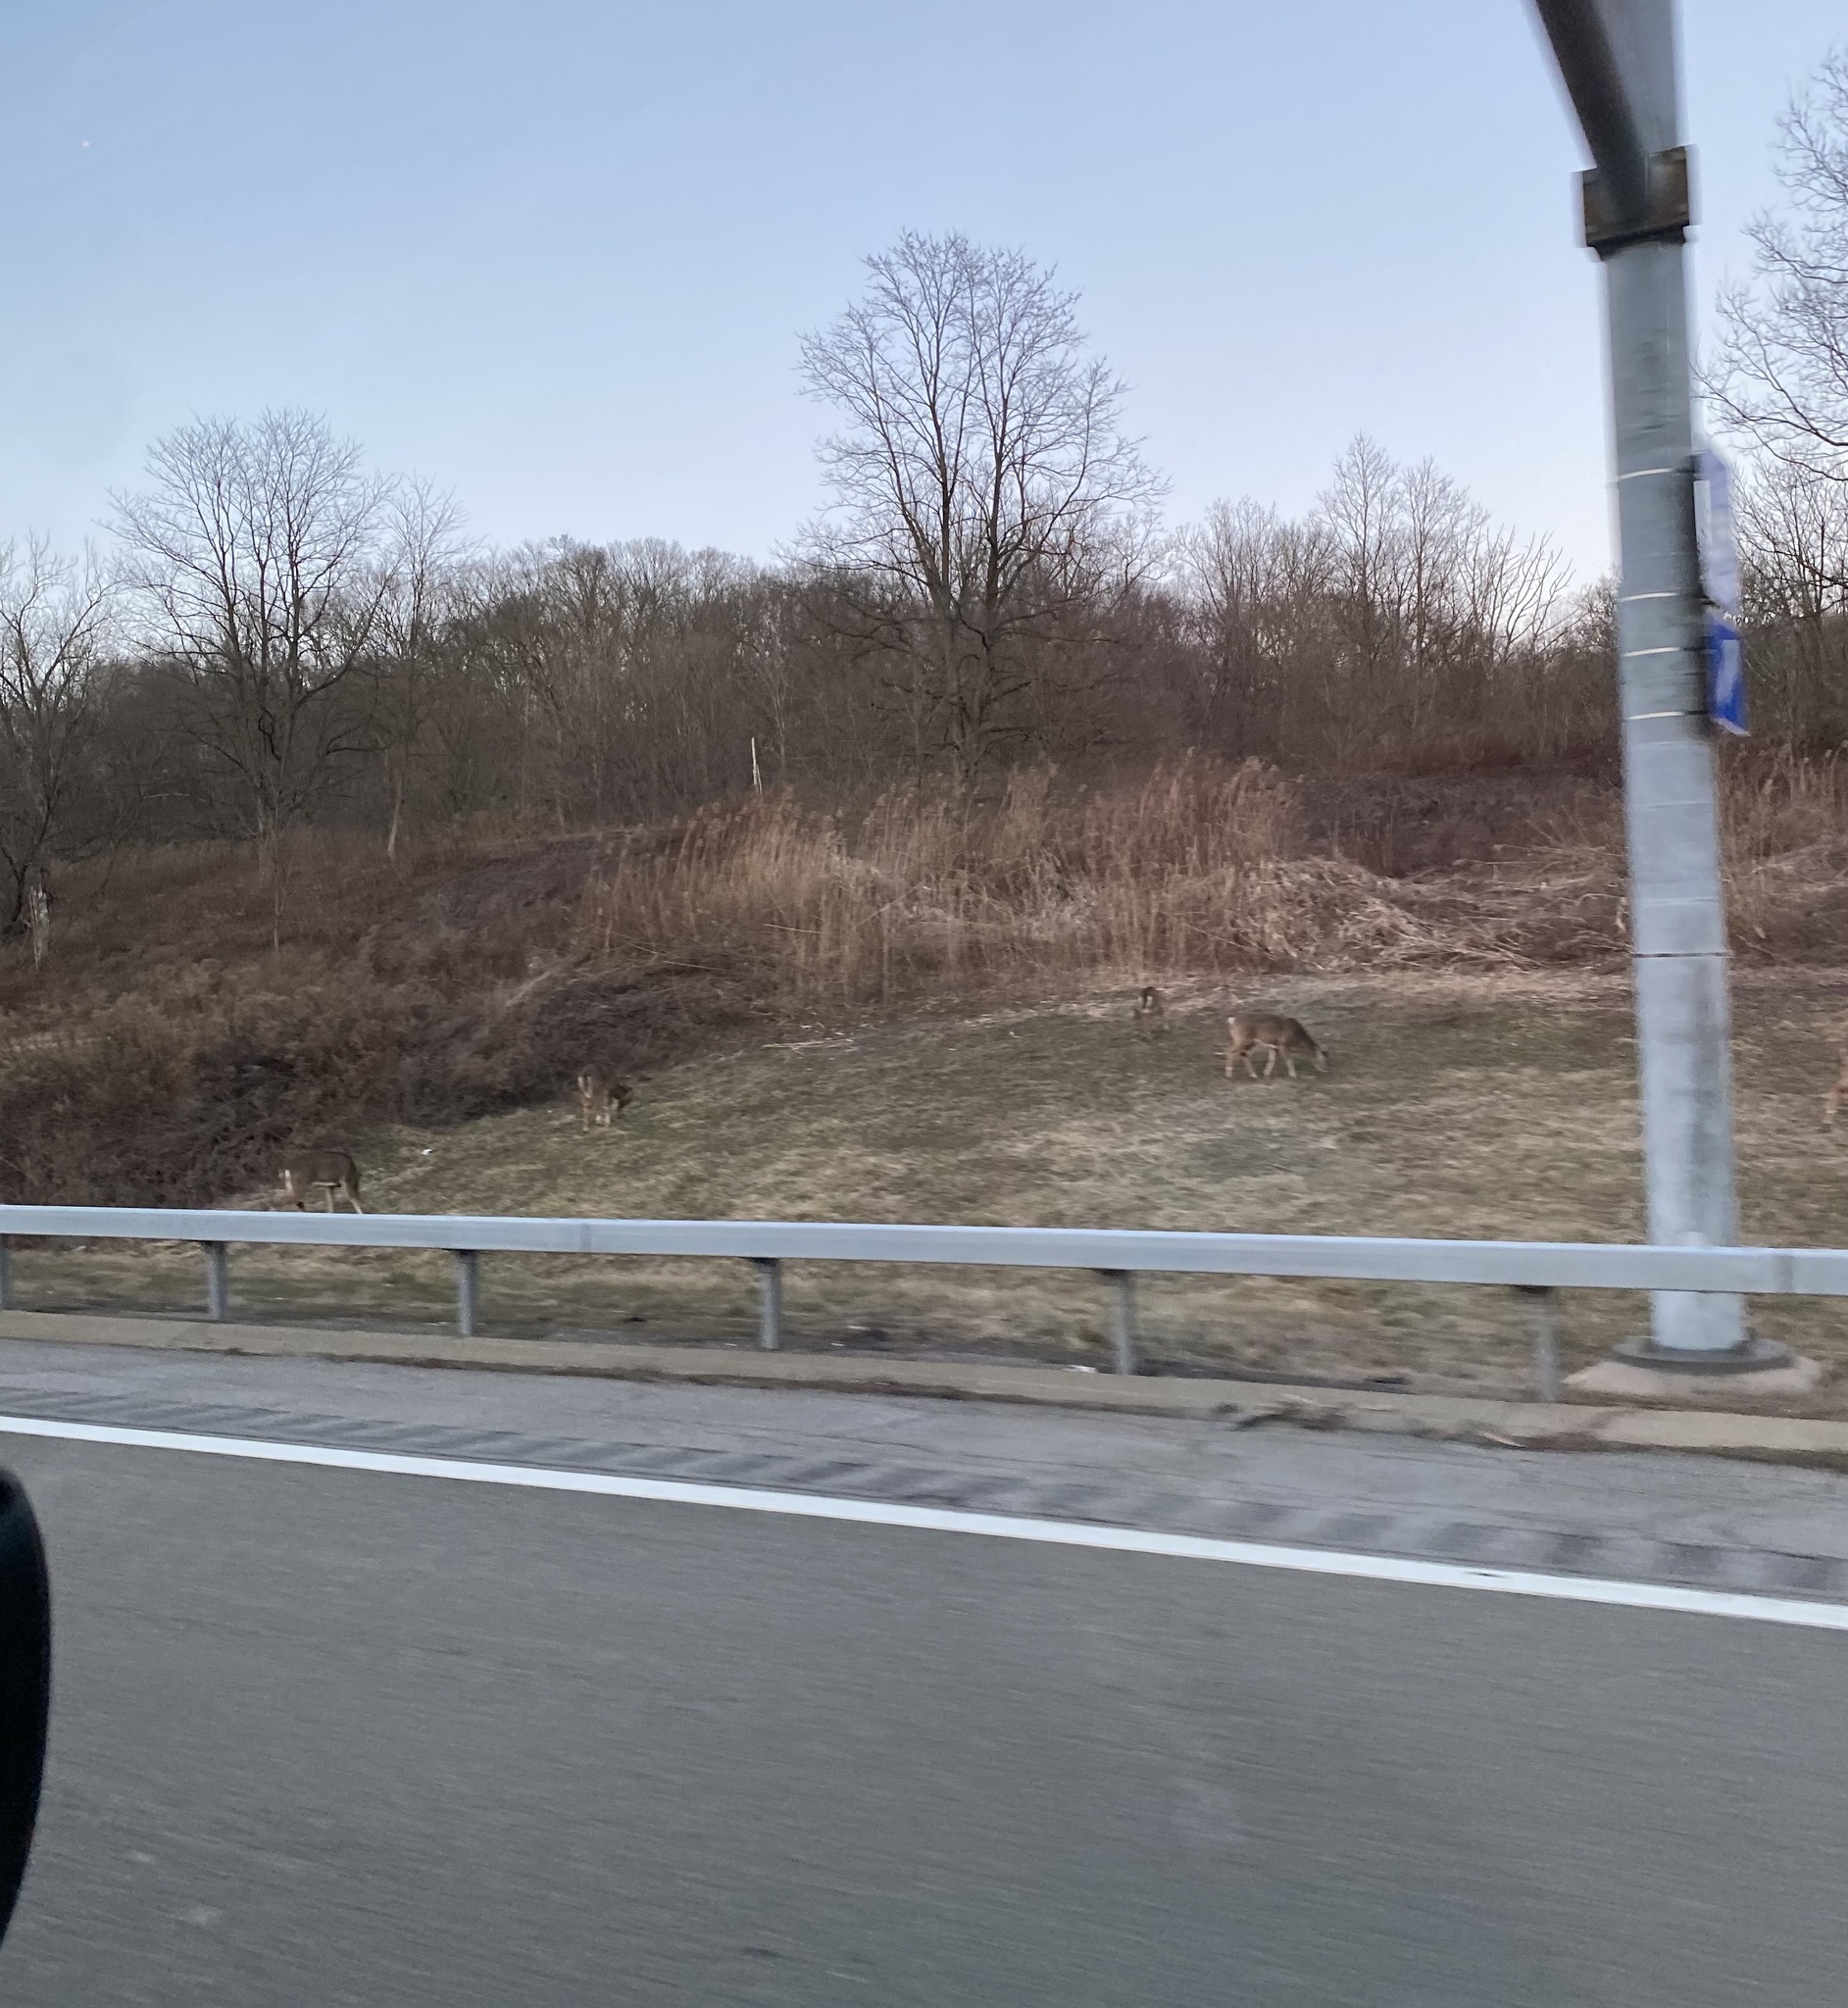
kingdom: Animalia
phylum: Chordata
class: Mammalia
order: Artiodactyla
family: Cervidae
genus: Odocoileus
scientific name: Odocoileus virginianus
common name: White-tailed deer
